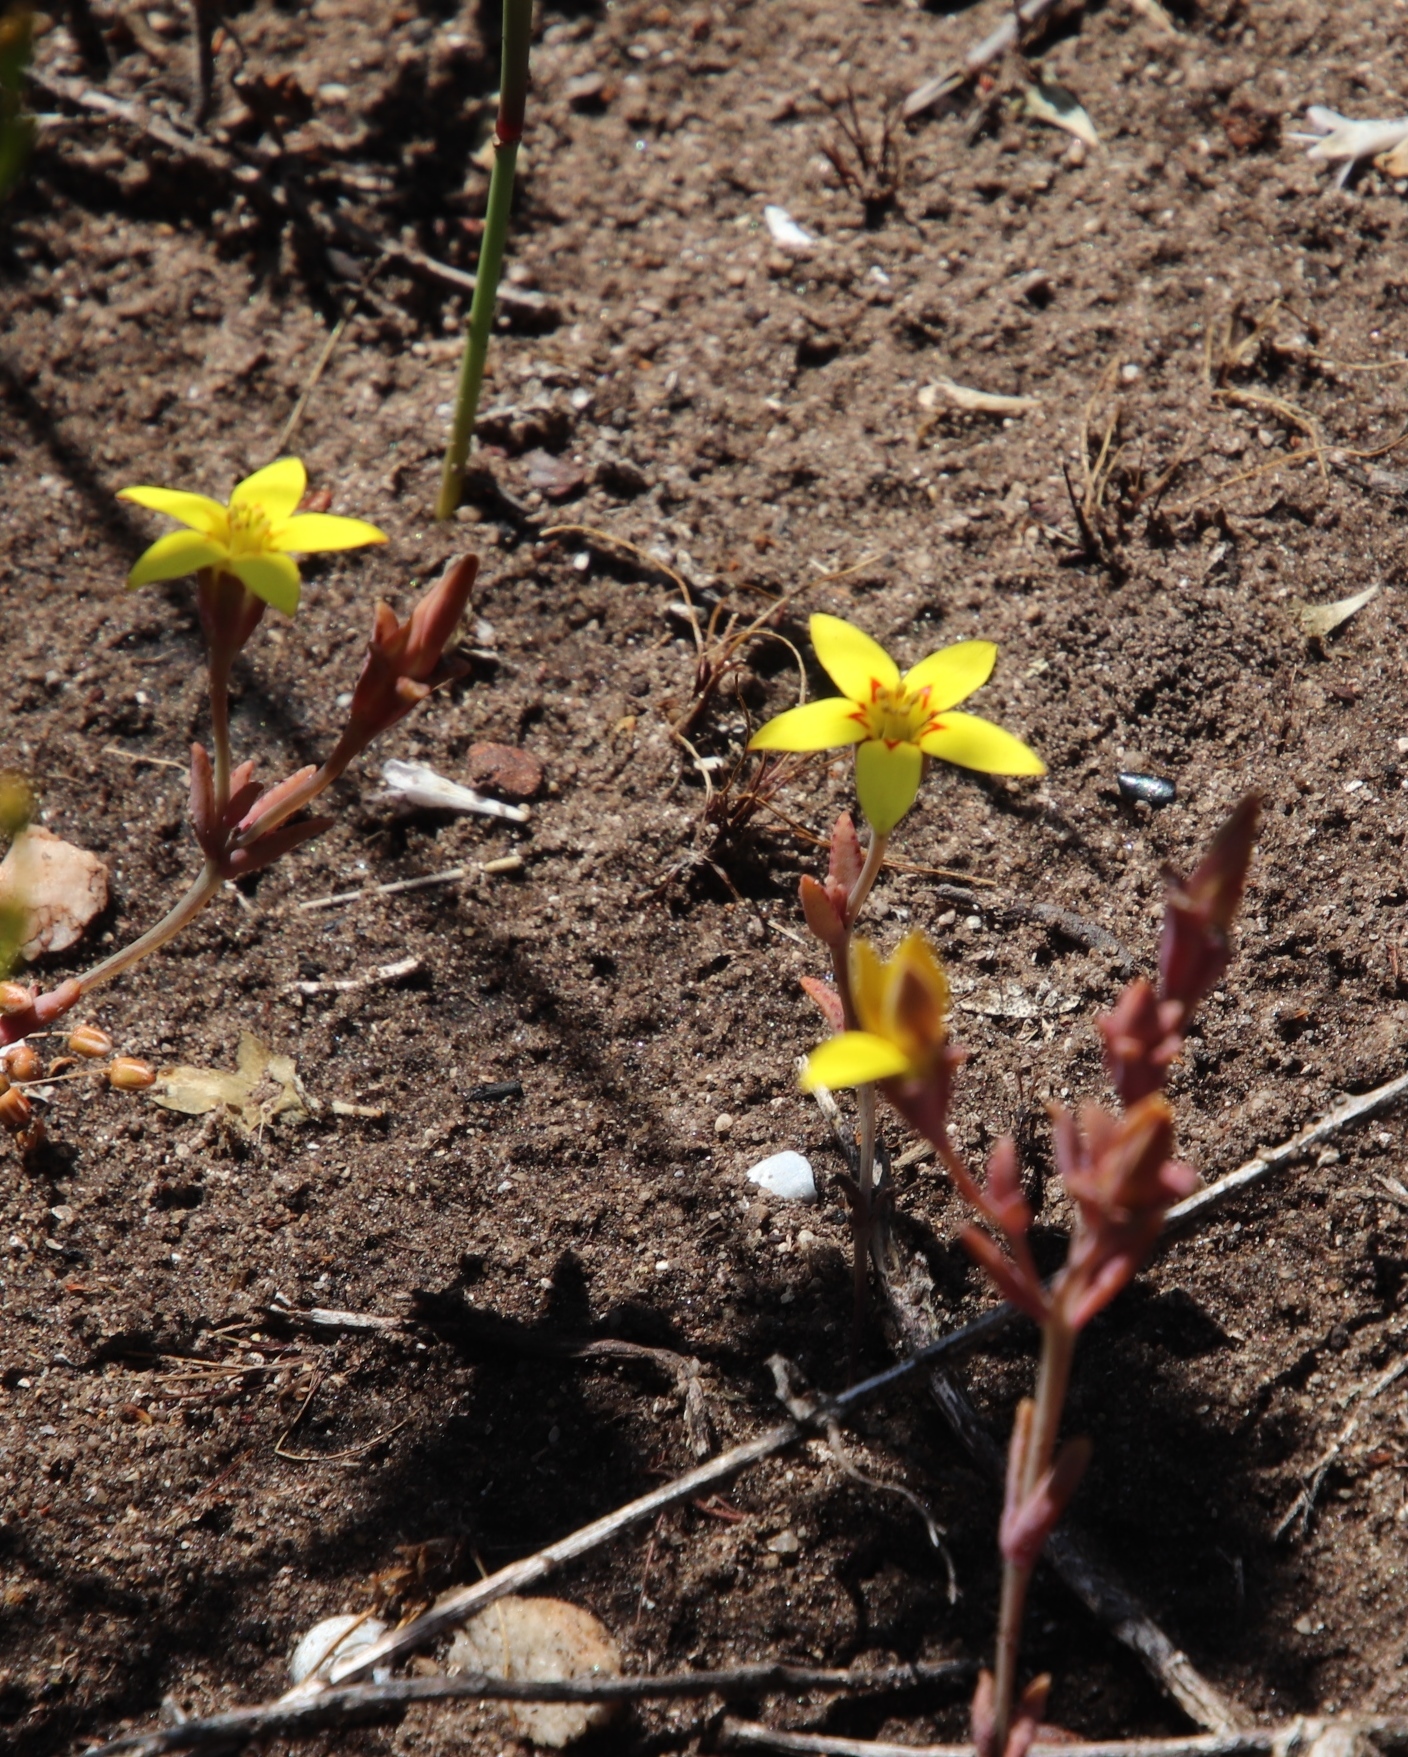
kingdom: Plantae
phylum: Tracheophyta
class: Magnoliopsida
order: Saxifragales
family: Crassulaceae
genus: Crassula
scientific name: Crassula dichotoma
